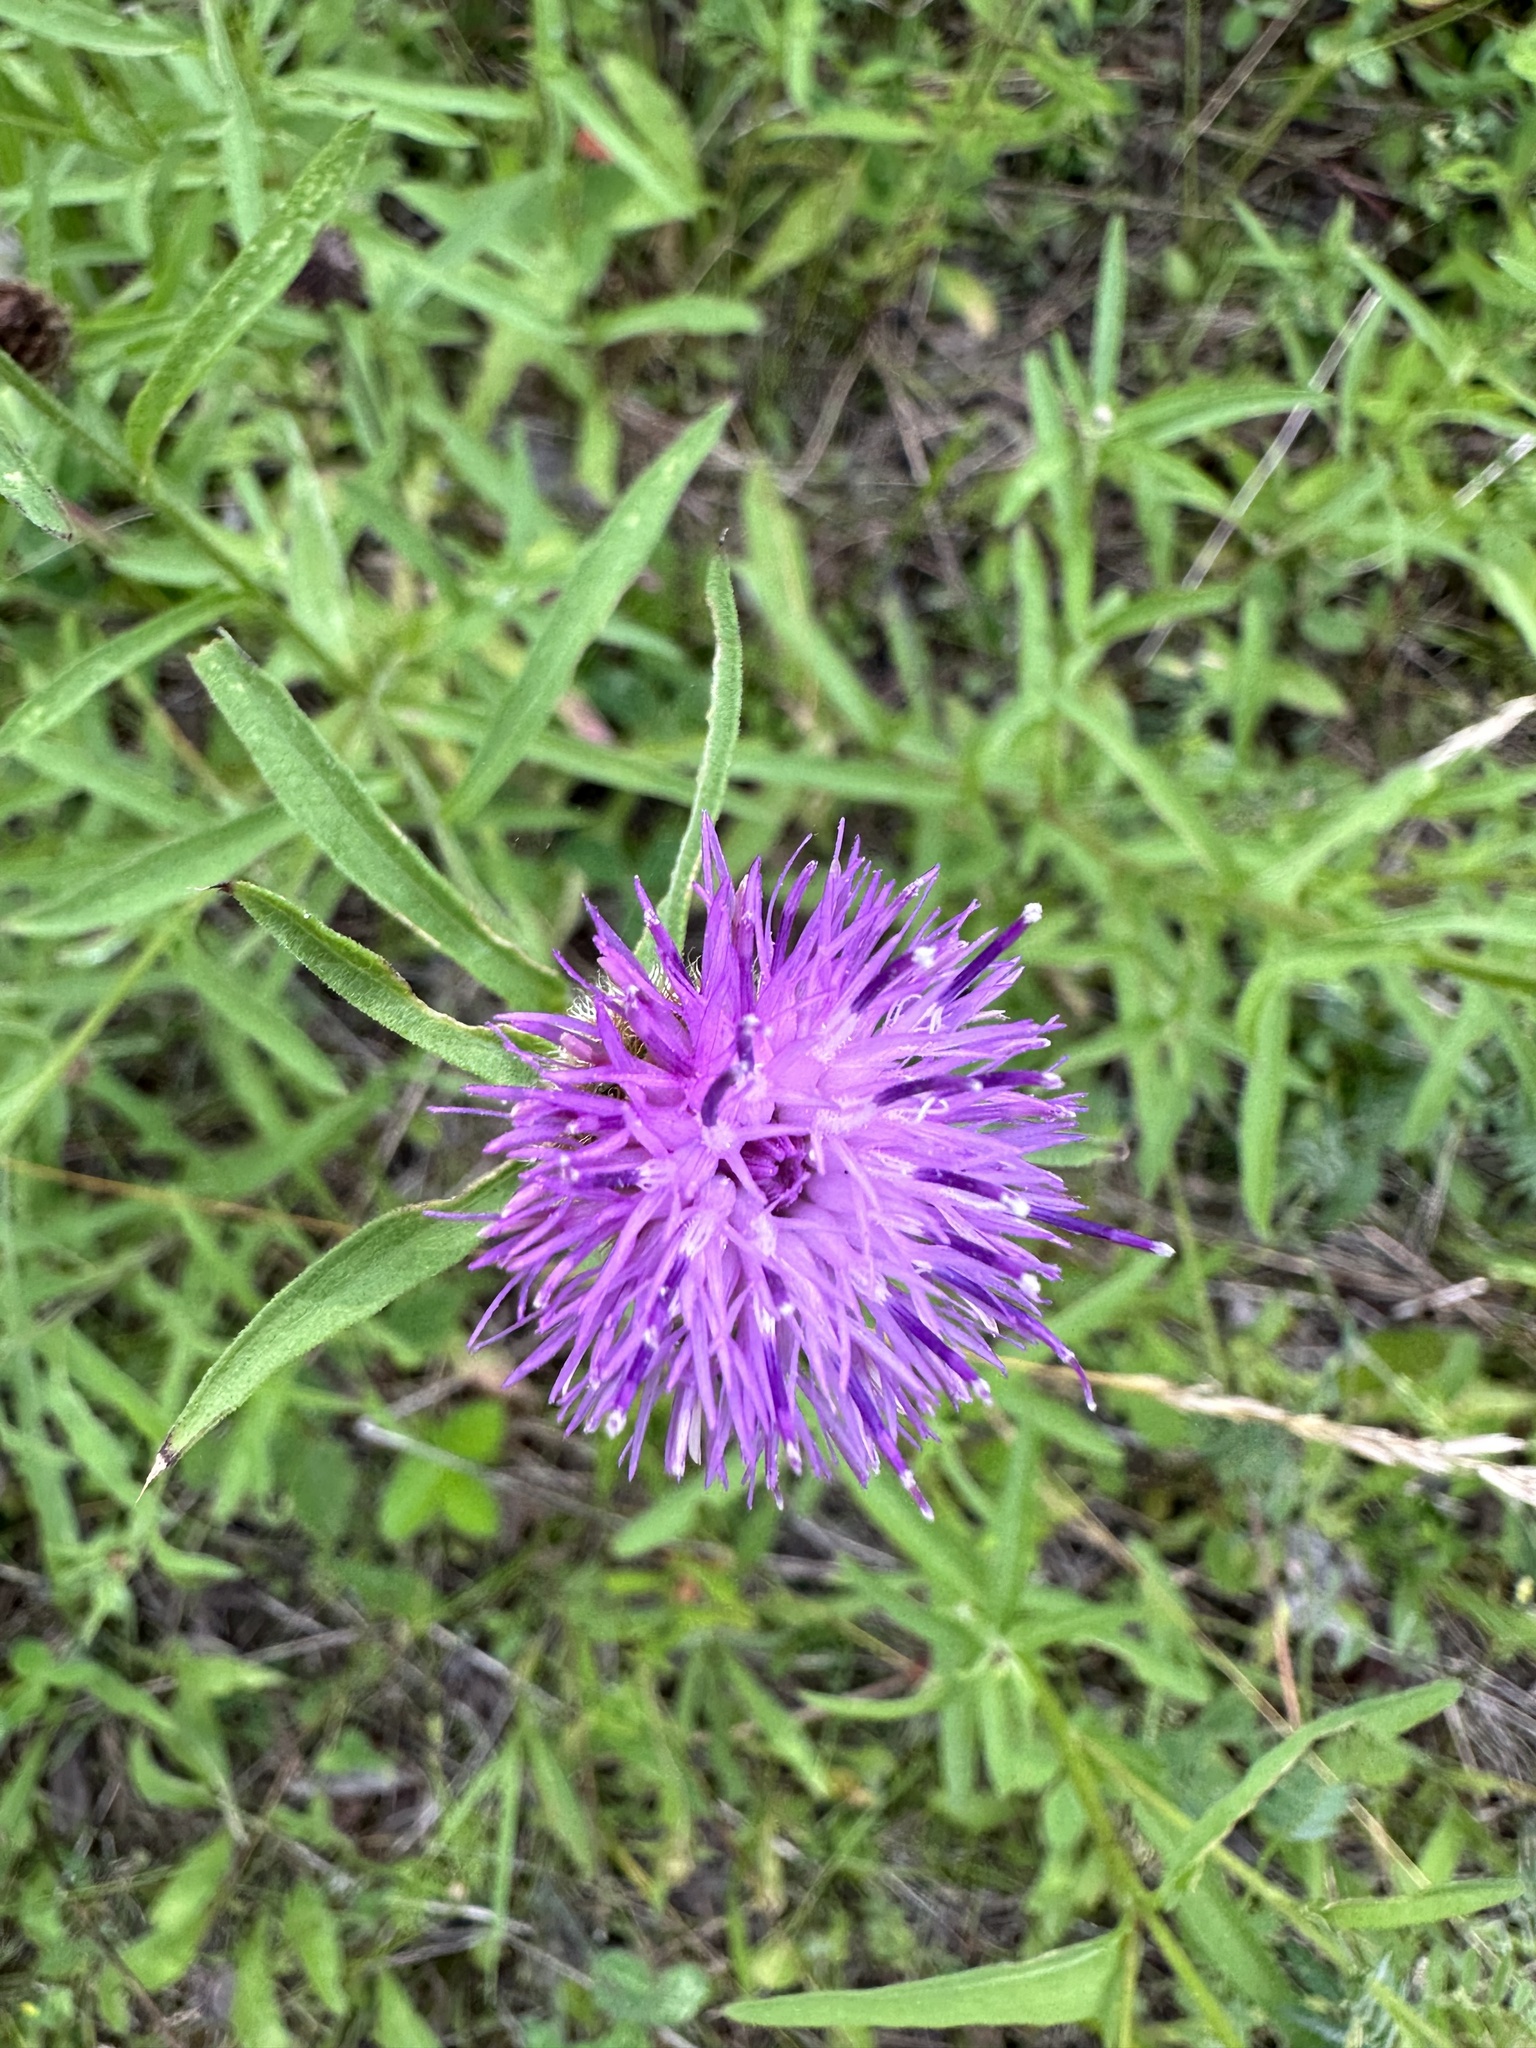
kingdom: Plantae
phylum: Tracheophyta
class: Magnoliopsida
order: Asterales
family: Asteraceae
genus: Centaurea
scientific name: Centaurea nigra
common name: Lesser knapweed
